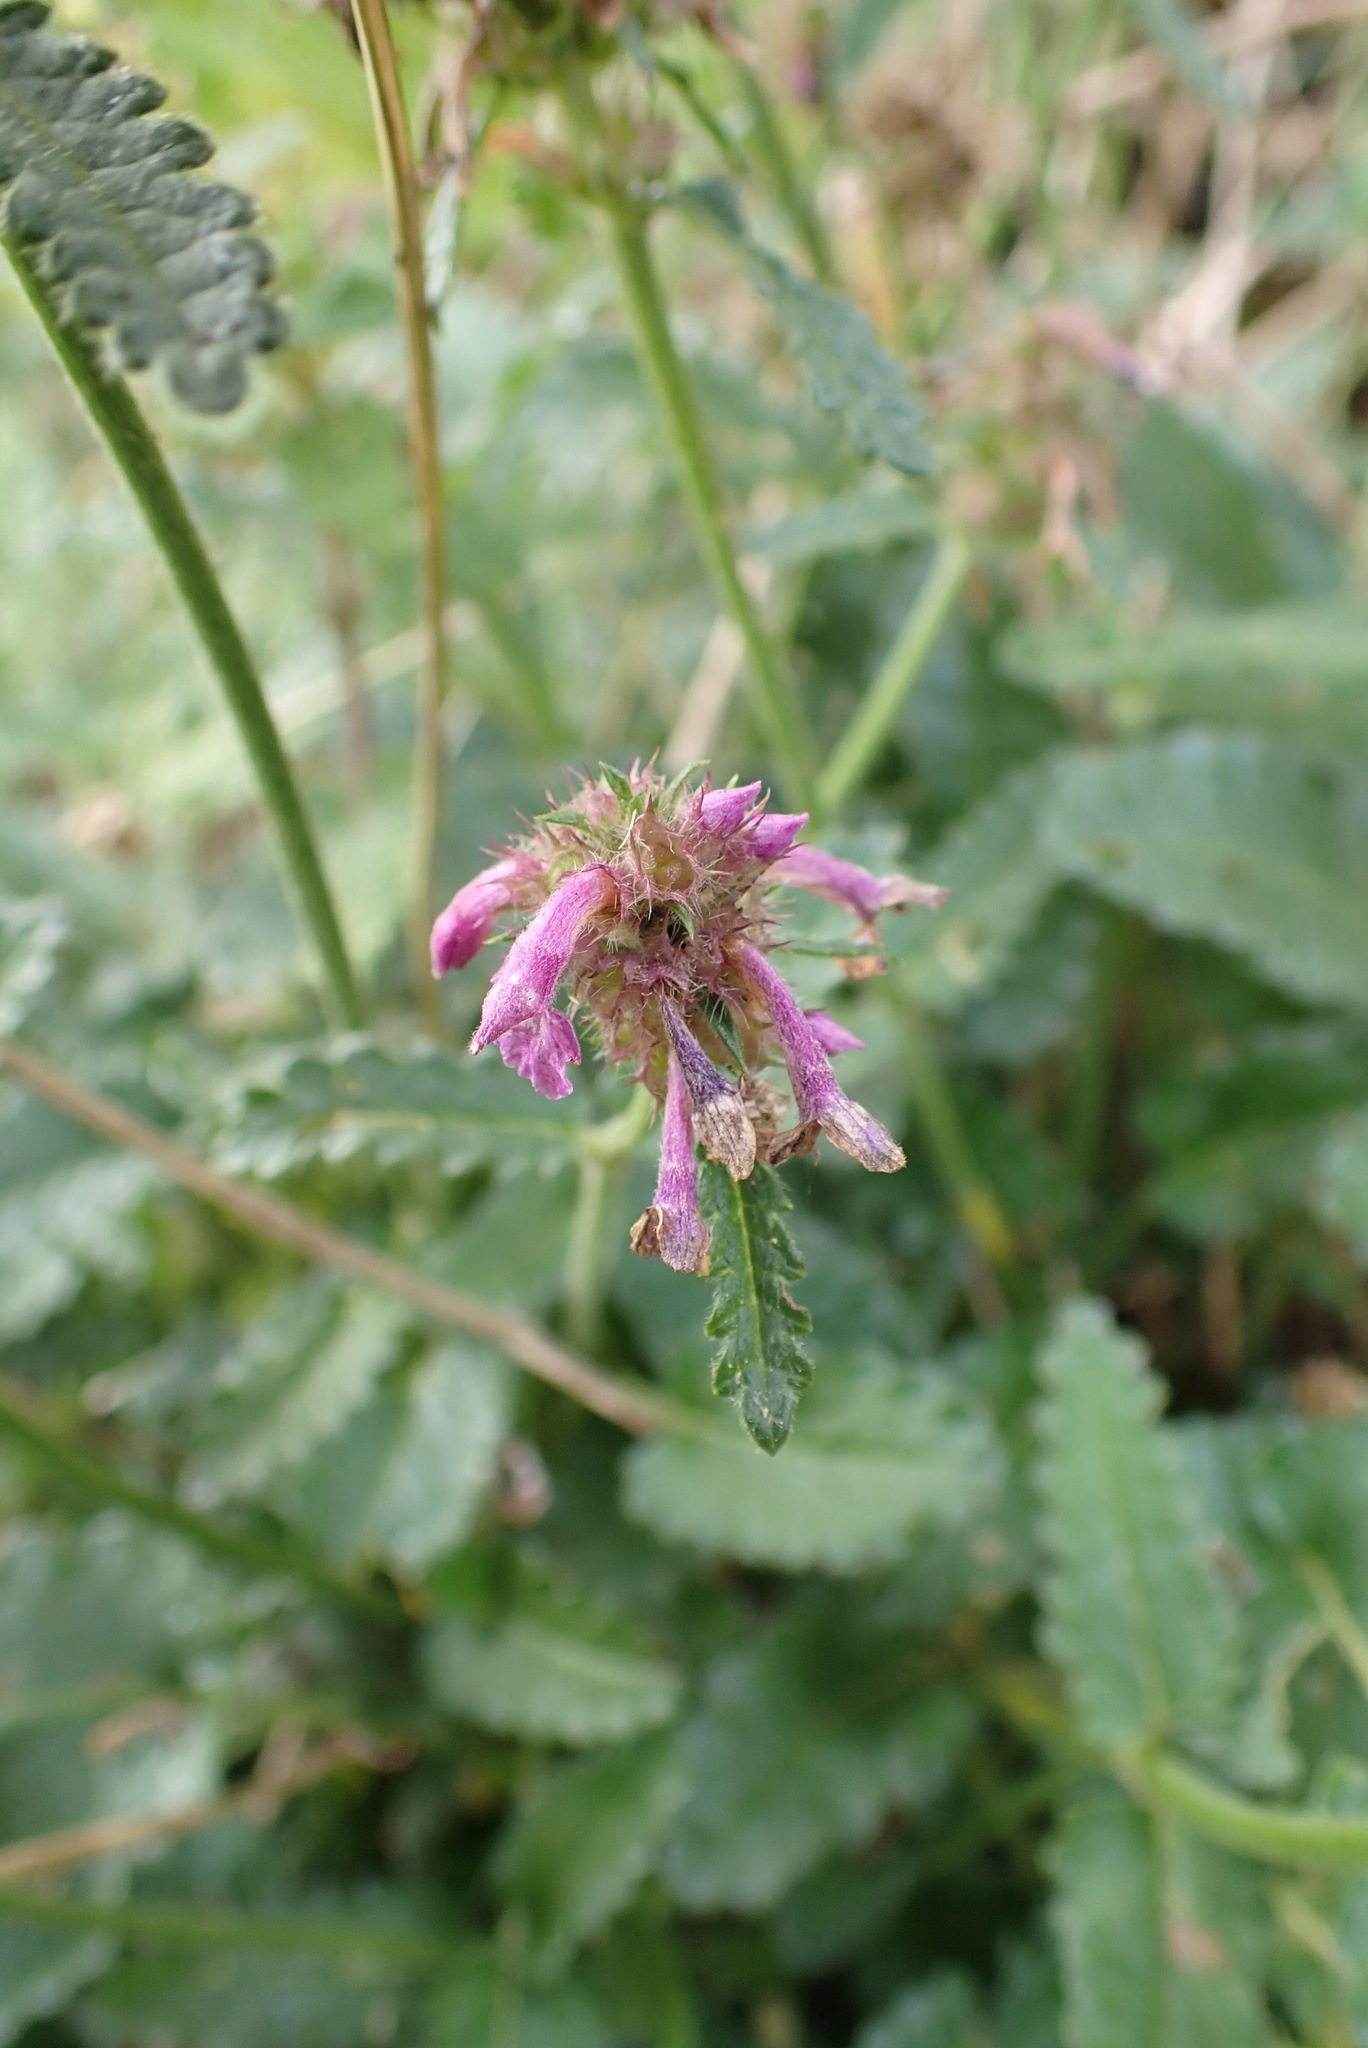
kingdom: Plantae
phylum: Tracheophyta
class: Magnoliopsida
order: Lamiales
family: Lamiaceae
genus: Betonica
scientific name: Betonica officinalis
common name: Bishop's-wort
